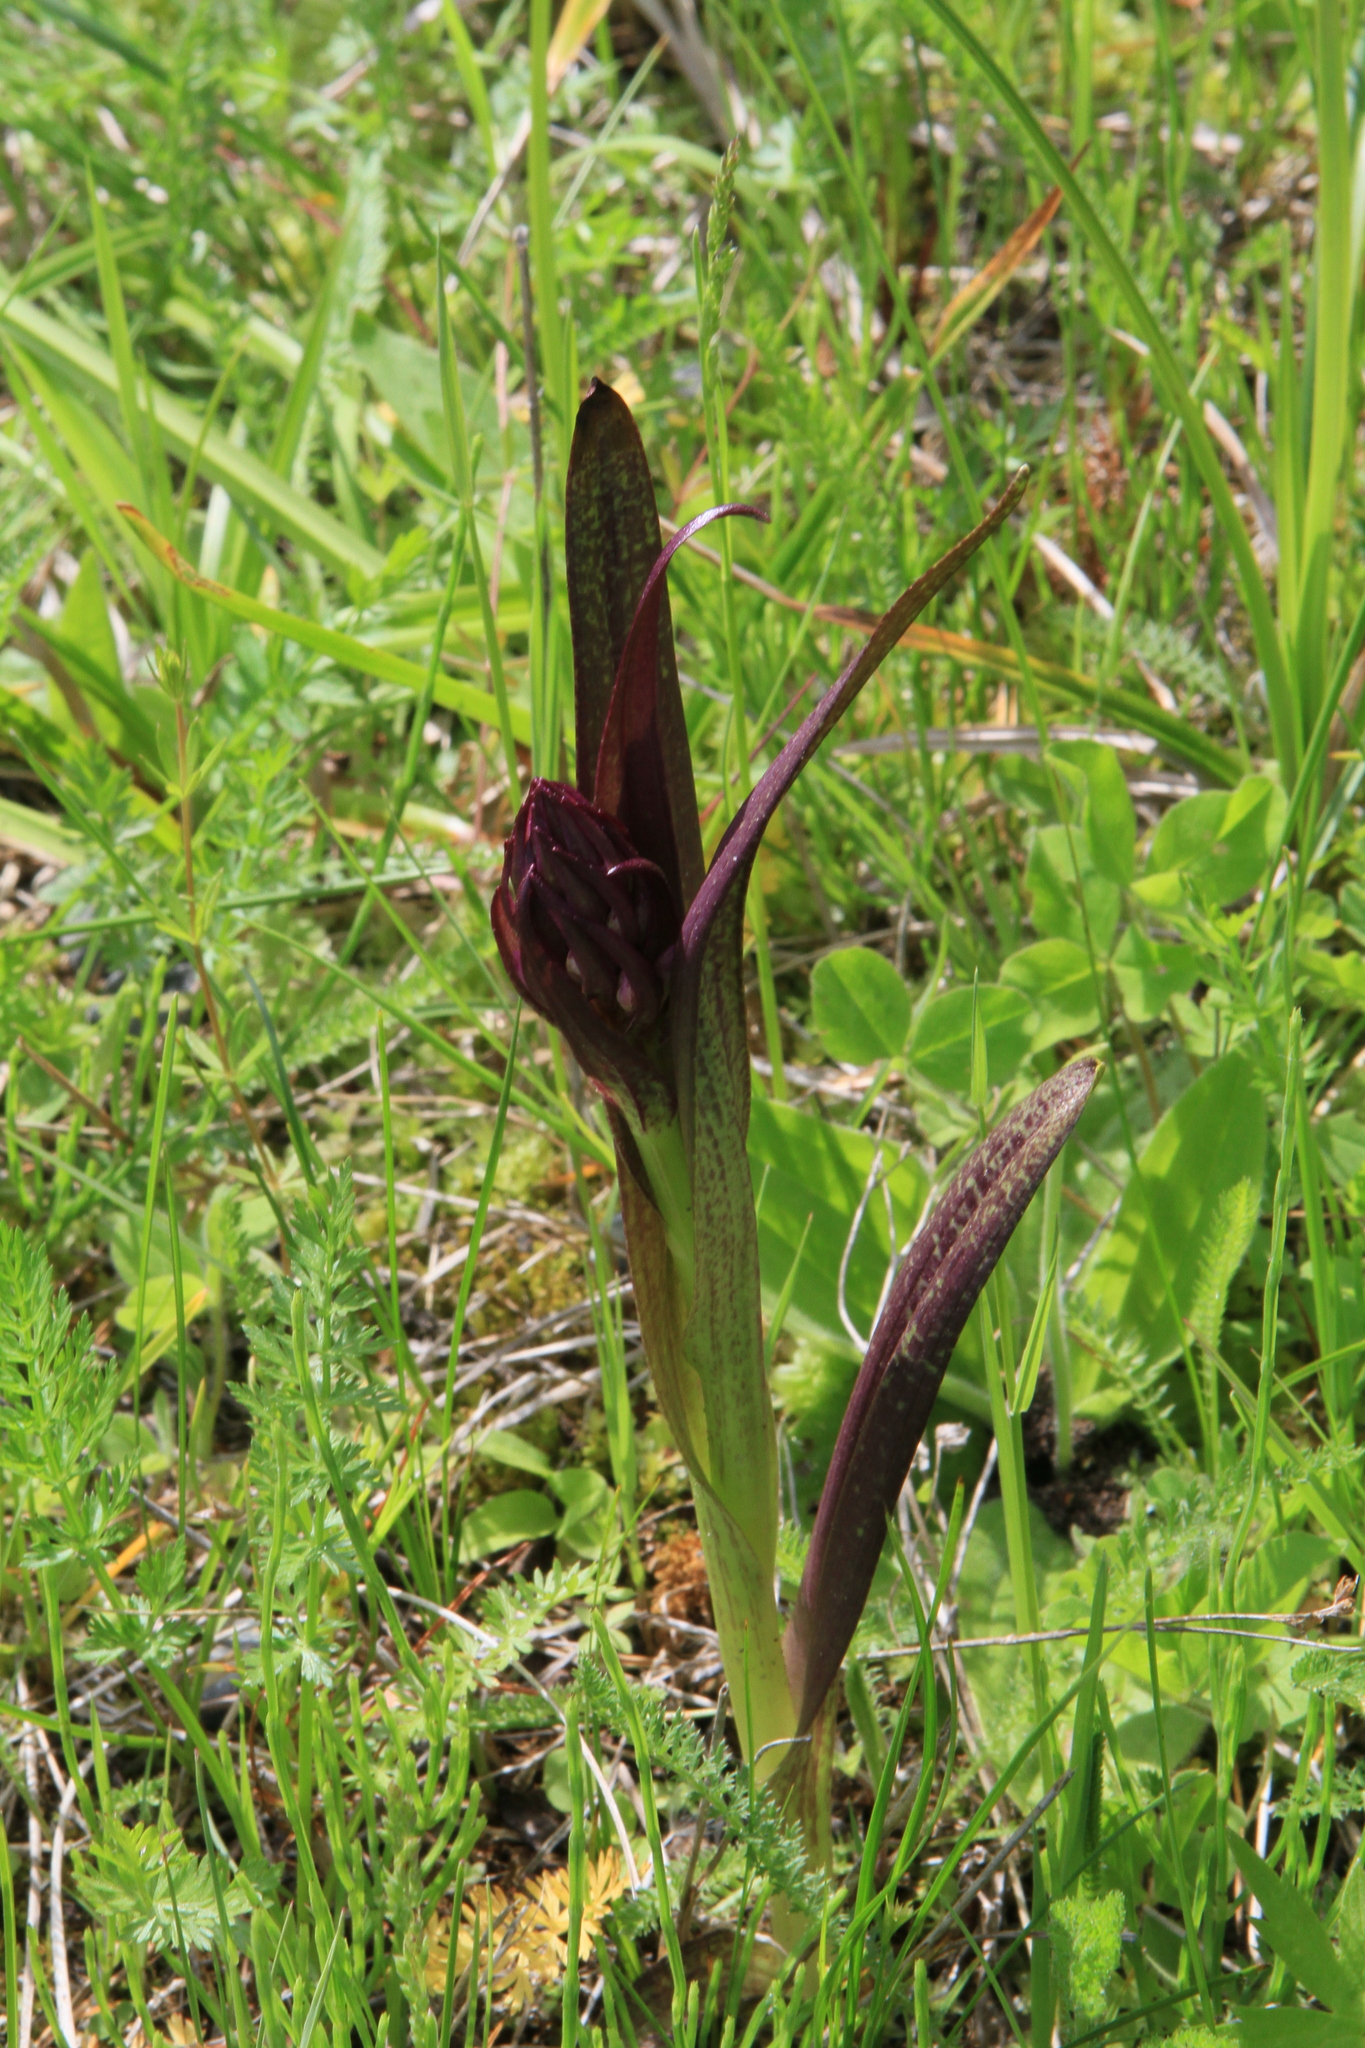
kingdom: Plantae
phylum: Tracheophyta
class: Liliopsida
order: Asparagales
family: Orchidaceae
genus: Dactylorhiza
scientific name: Dactylorhiza incarnata
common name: Early marsh-orchid
